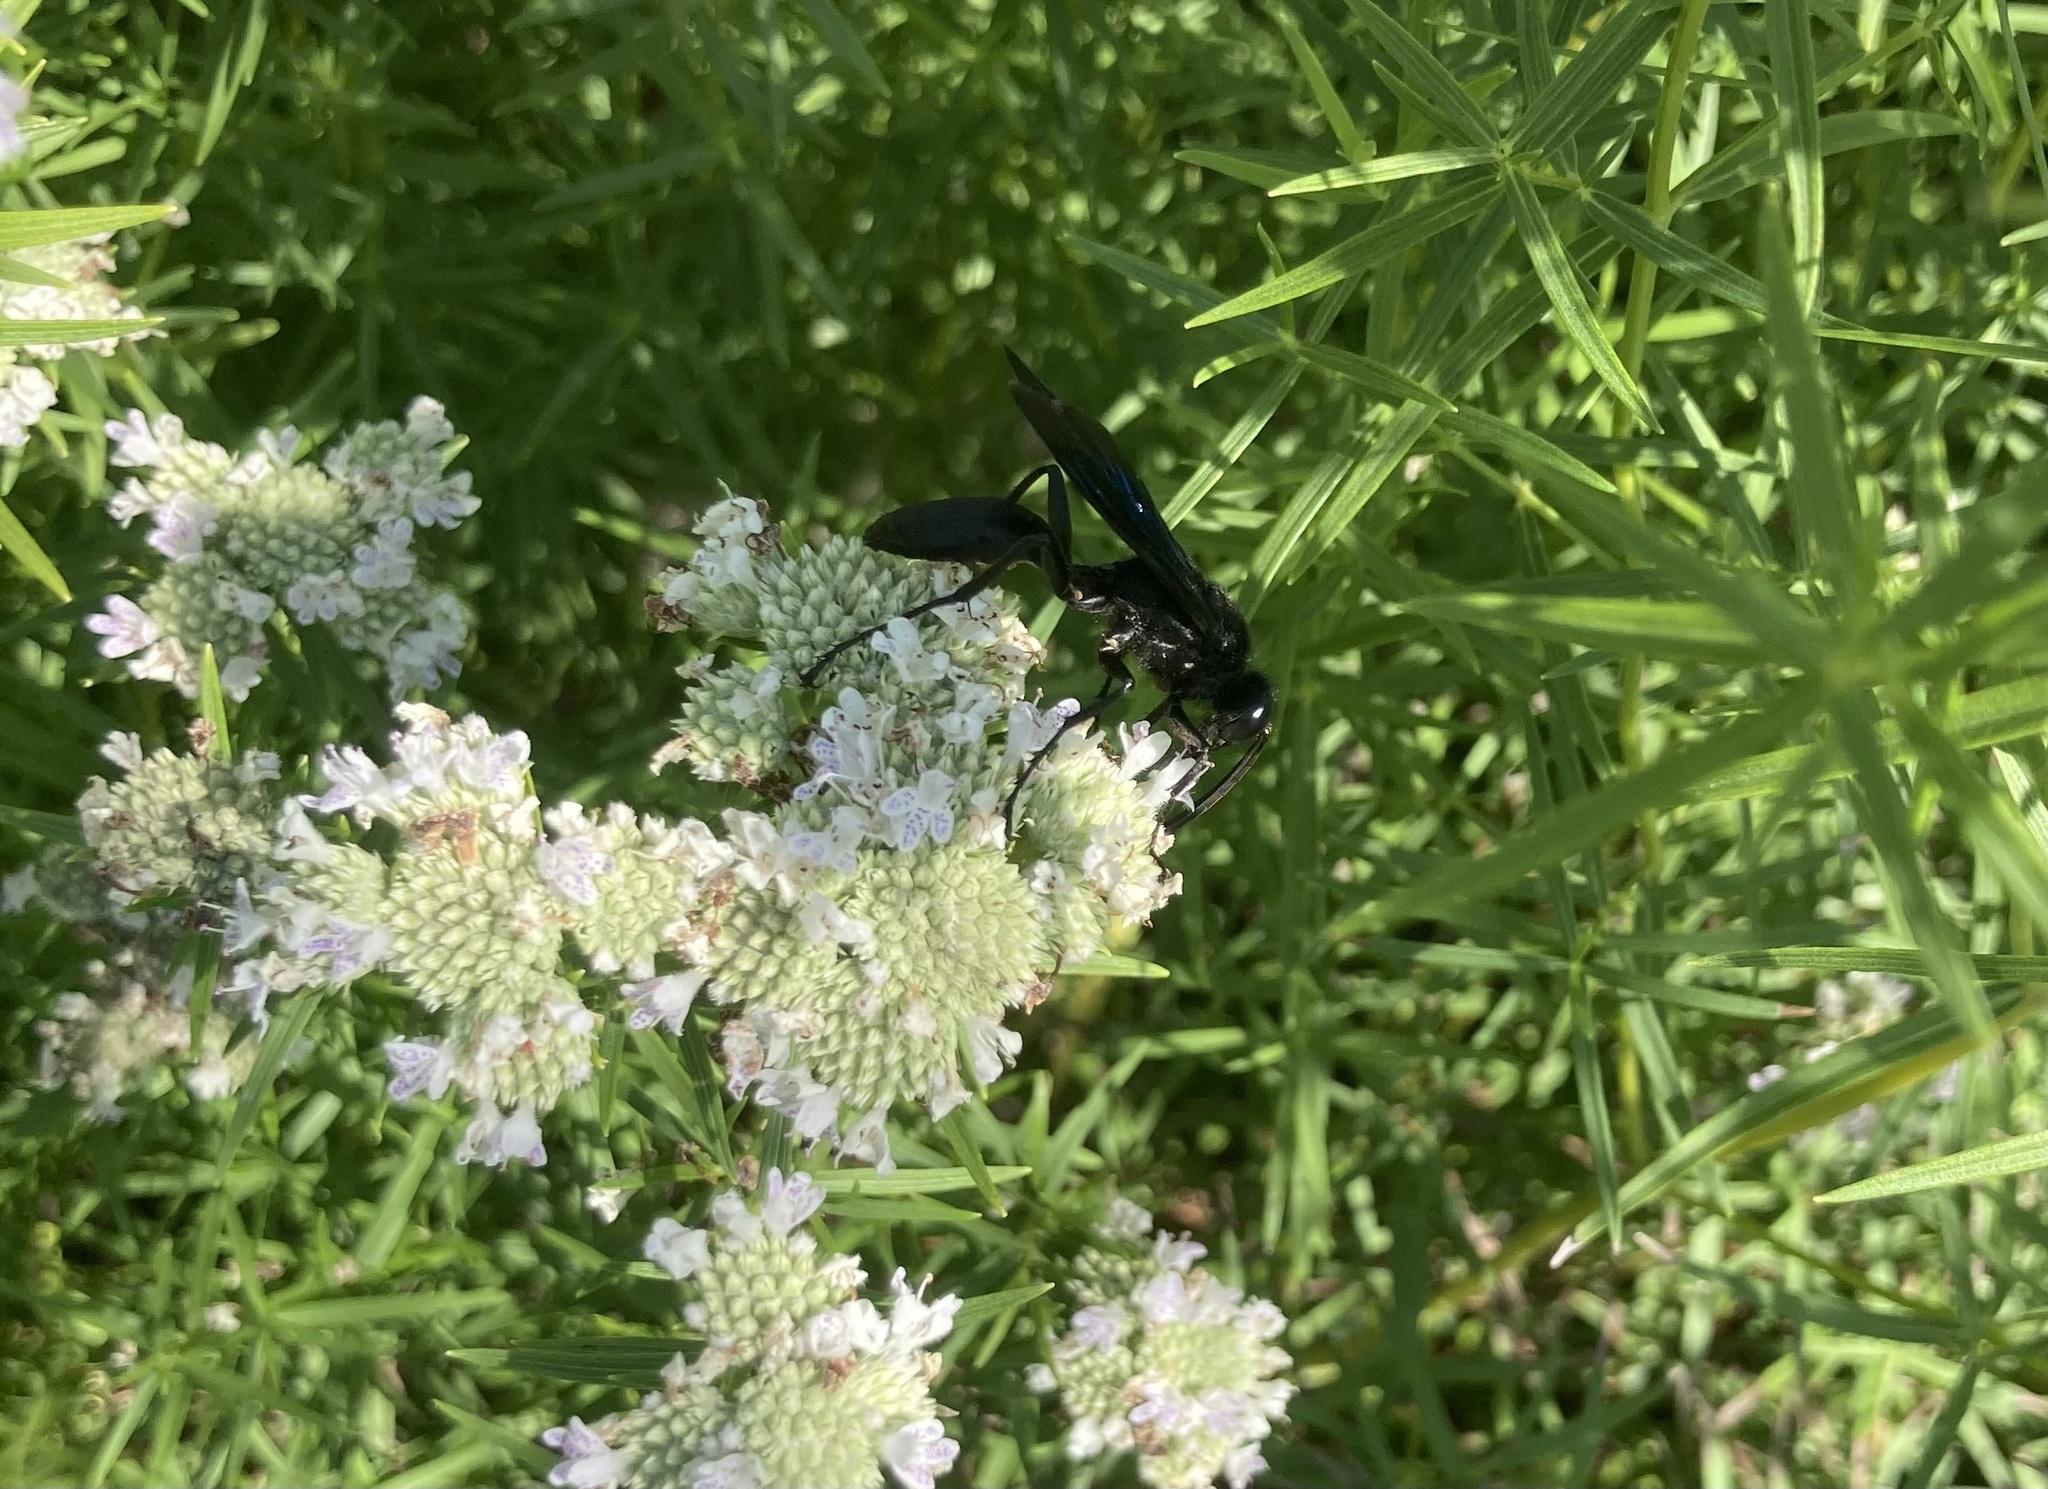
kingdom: Animalia
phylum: Arthropoda
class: Insecta
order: Hymenoptera
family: Sphecidae
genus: Sphex
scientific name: Sphex pensylvanicus
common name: Great black digger wasp
